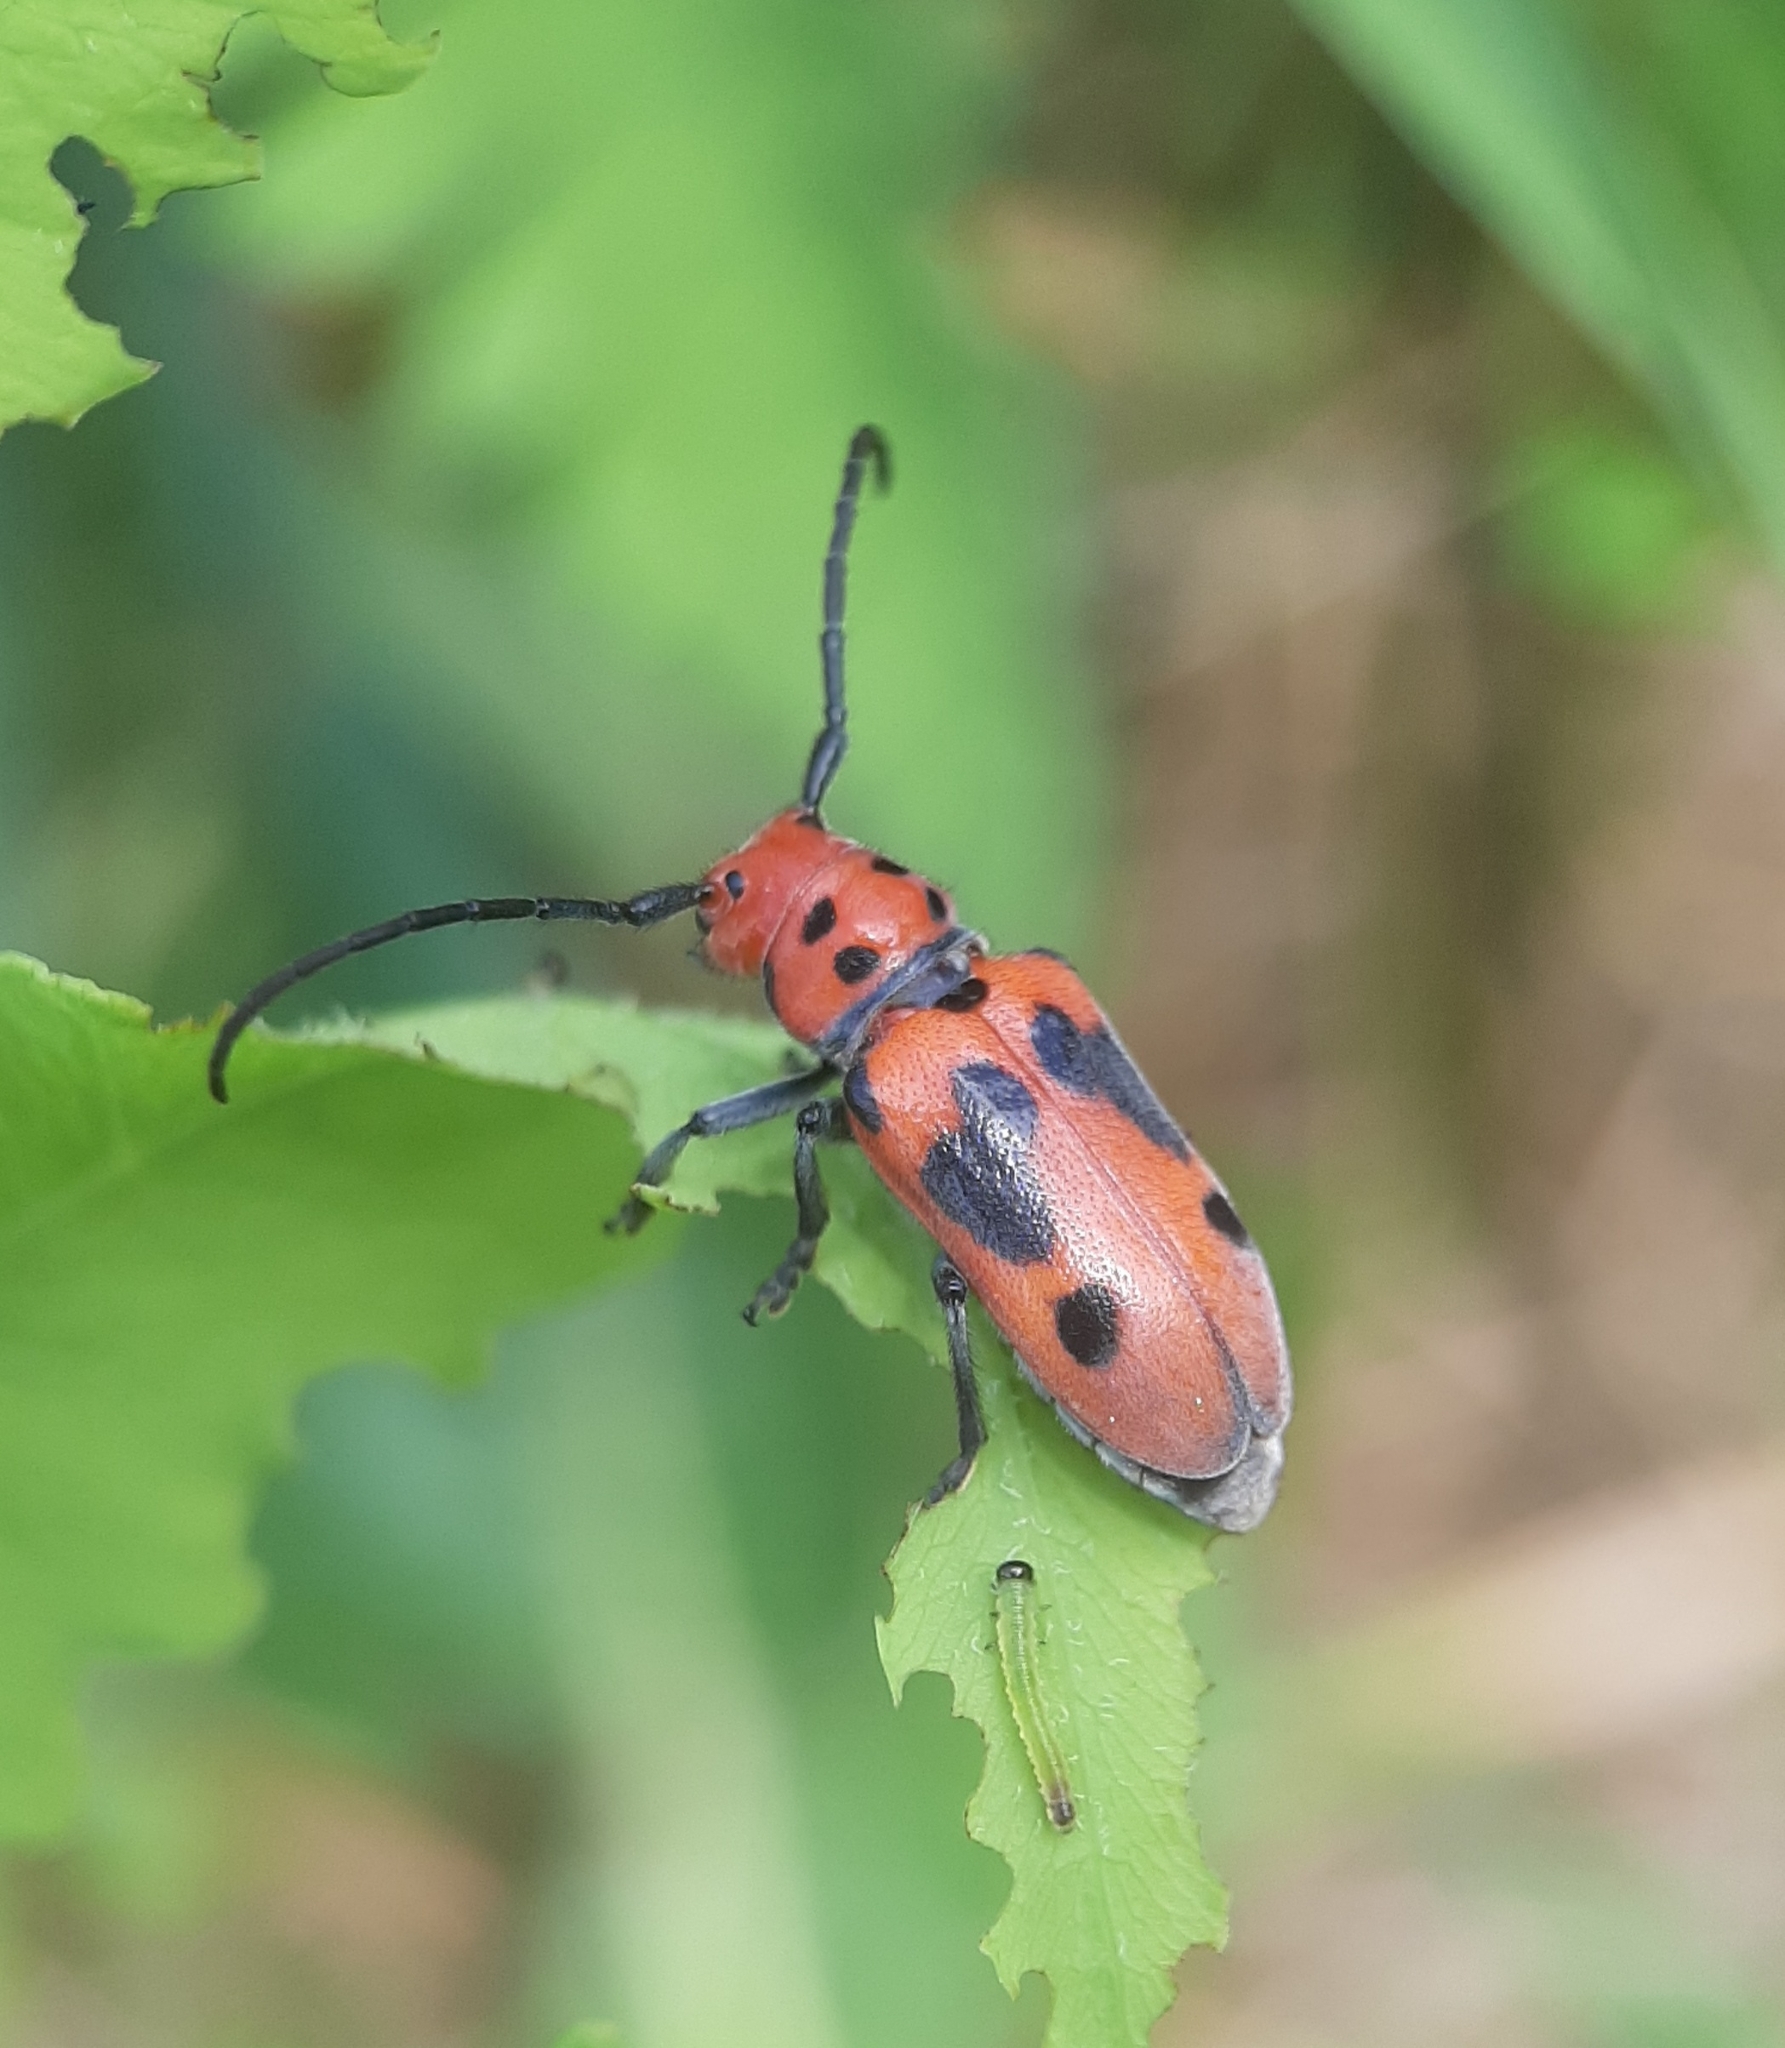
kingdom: Animalia
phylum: Arthropoda
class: Insecta
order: Coleoptera
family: Cerambycidae
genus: Tetraopes
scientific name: Tetraopes tetrophthalmus
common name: Red milkweed beetle
